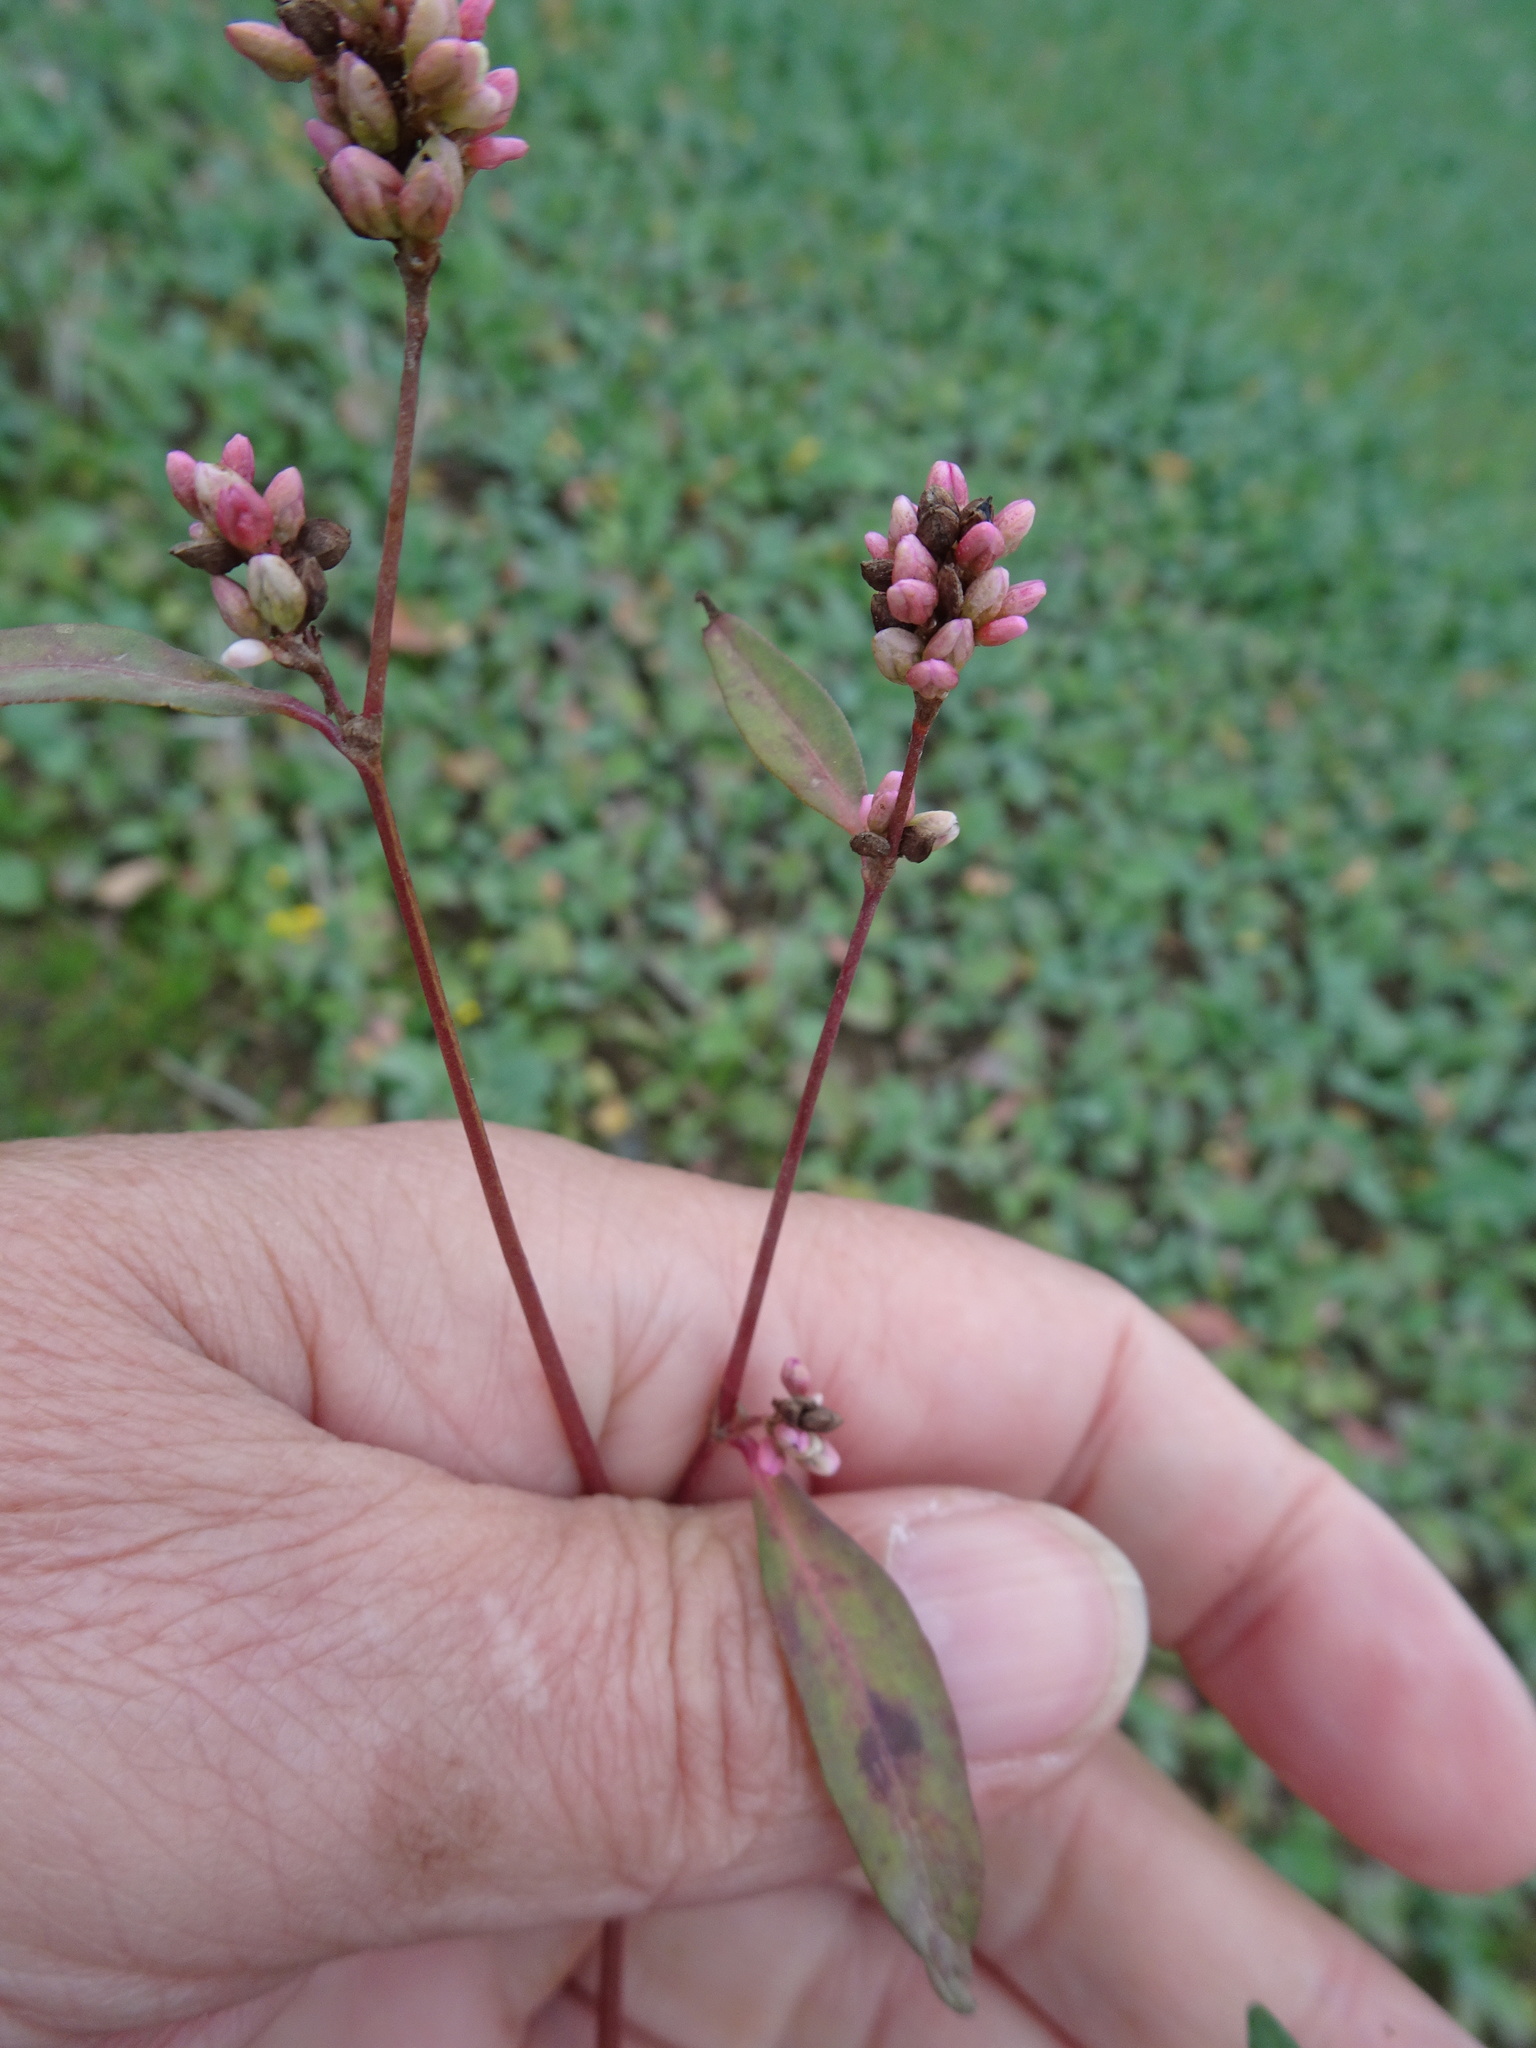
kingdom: Plantae
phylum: Tracheophyta
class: Magnoliopsida
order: Caryophyllales
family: Polygonaceae
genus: Persicaria
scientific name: Persicaria maculosa
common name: Redshank
